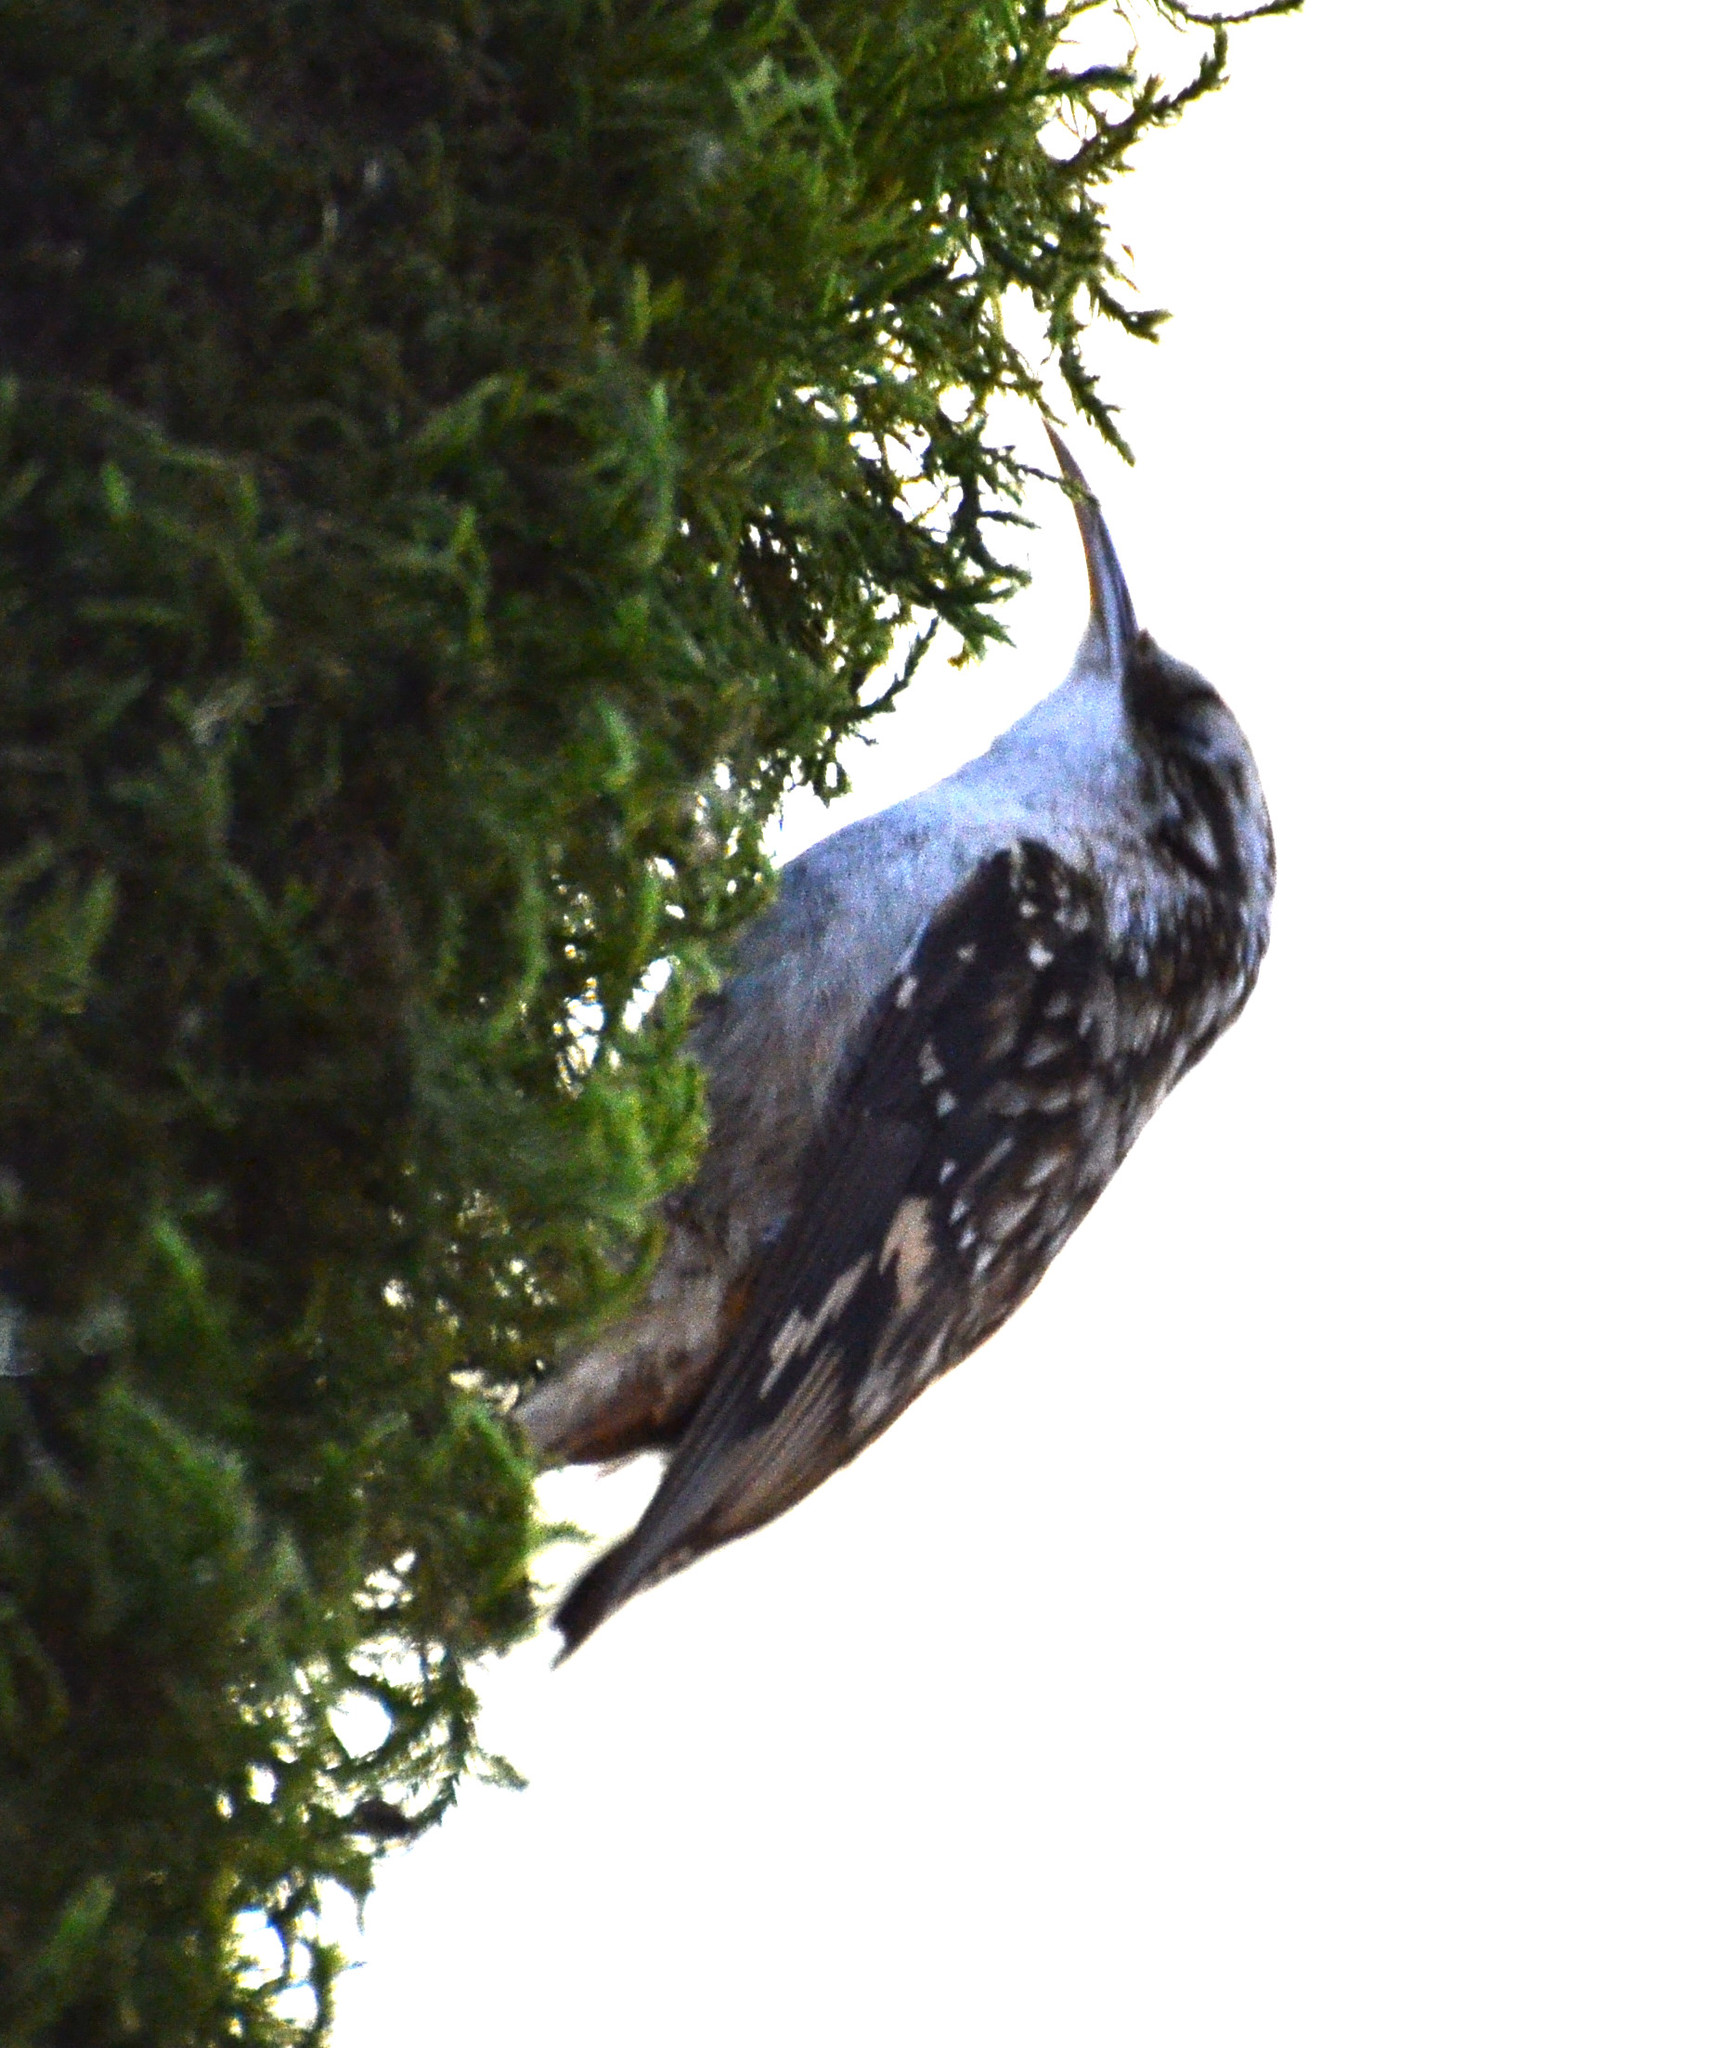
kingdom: Animalia
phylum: Chordata
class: Aves
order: Passeriformes
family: Certhiidae
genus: Certhia
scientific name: Certhia americana
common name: Brown creeper
